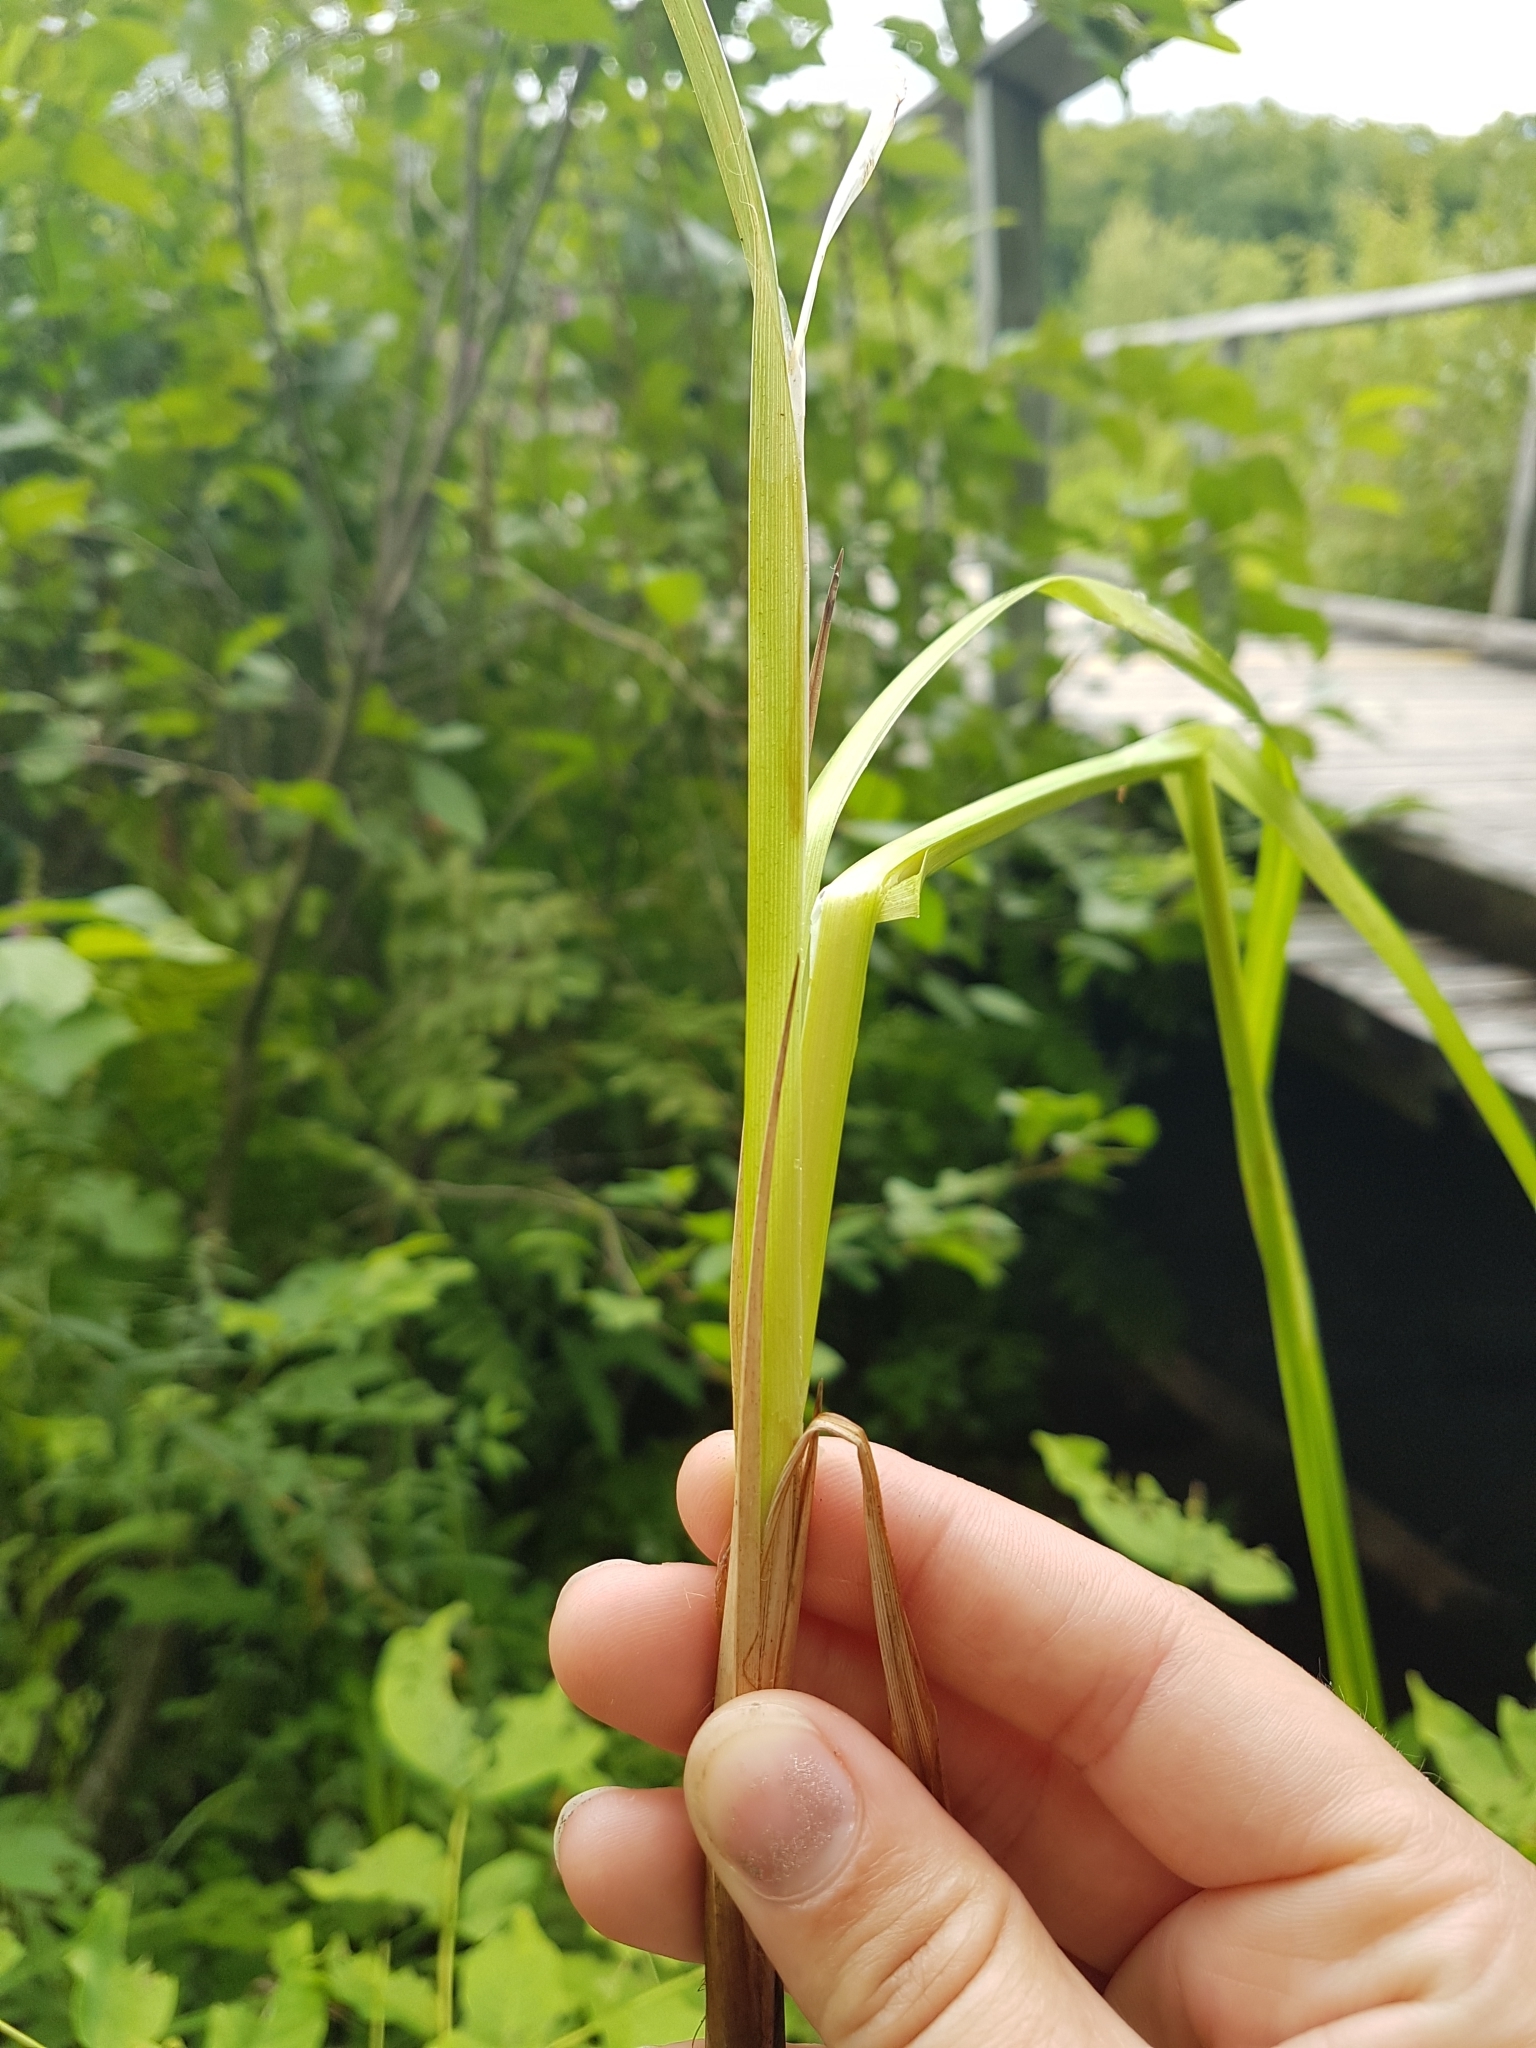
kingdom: Plantae
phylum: Tracheophyta
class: Liliopsida
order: Poales
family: Cyperaceae
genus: Carex
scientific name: Carex crinita
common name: Fringed sedge
